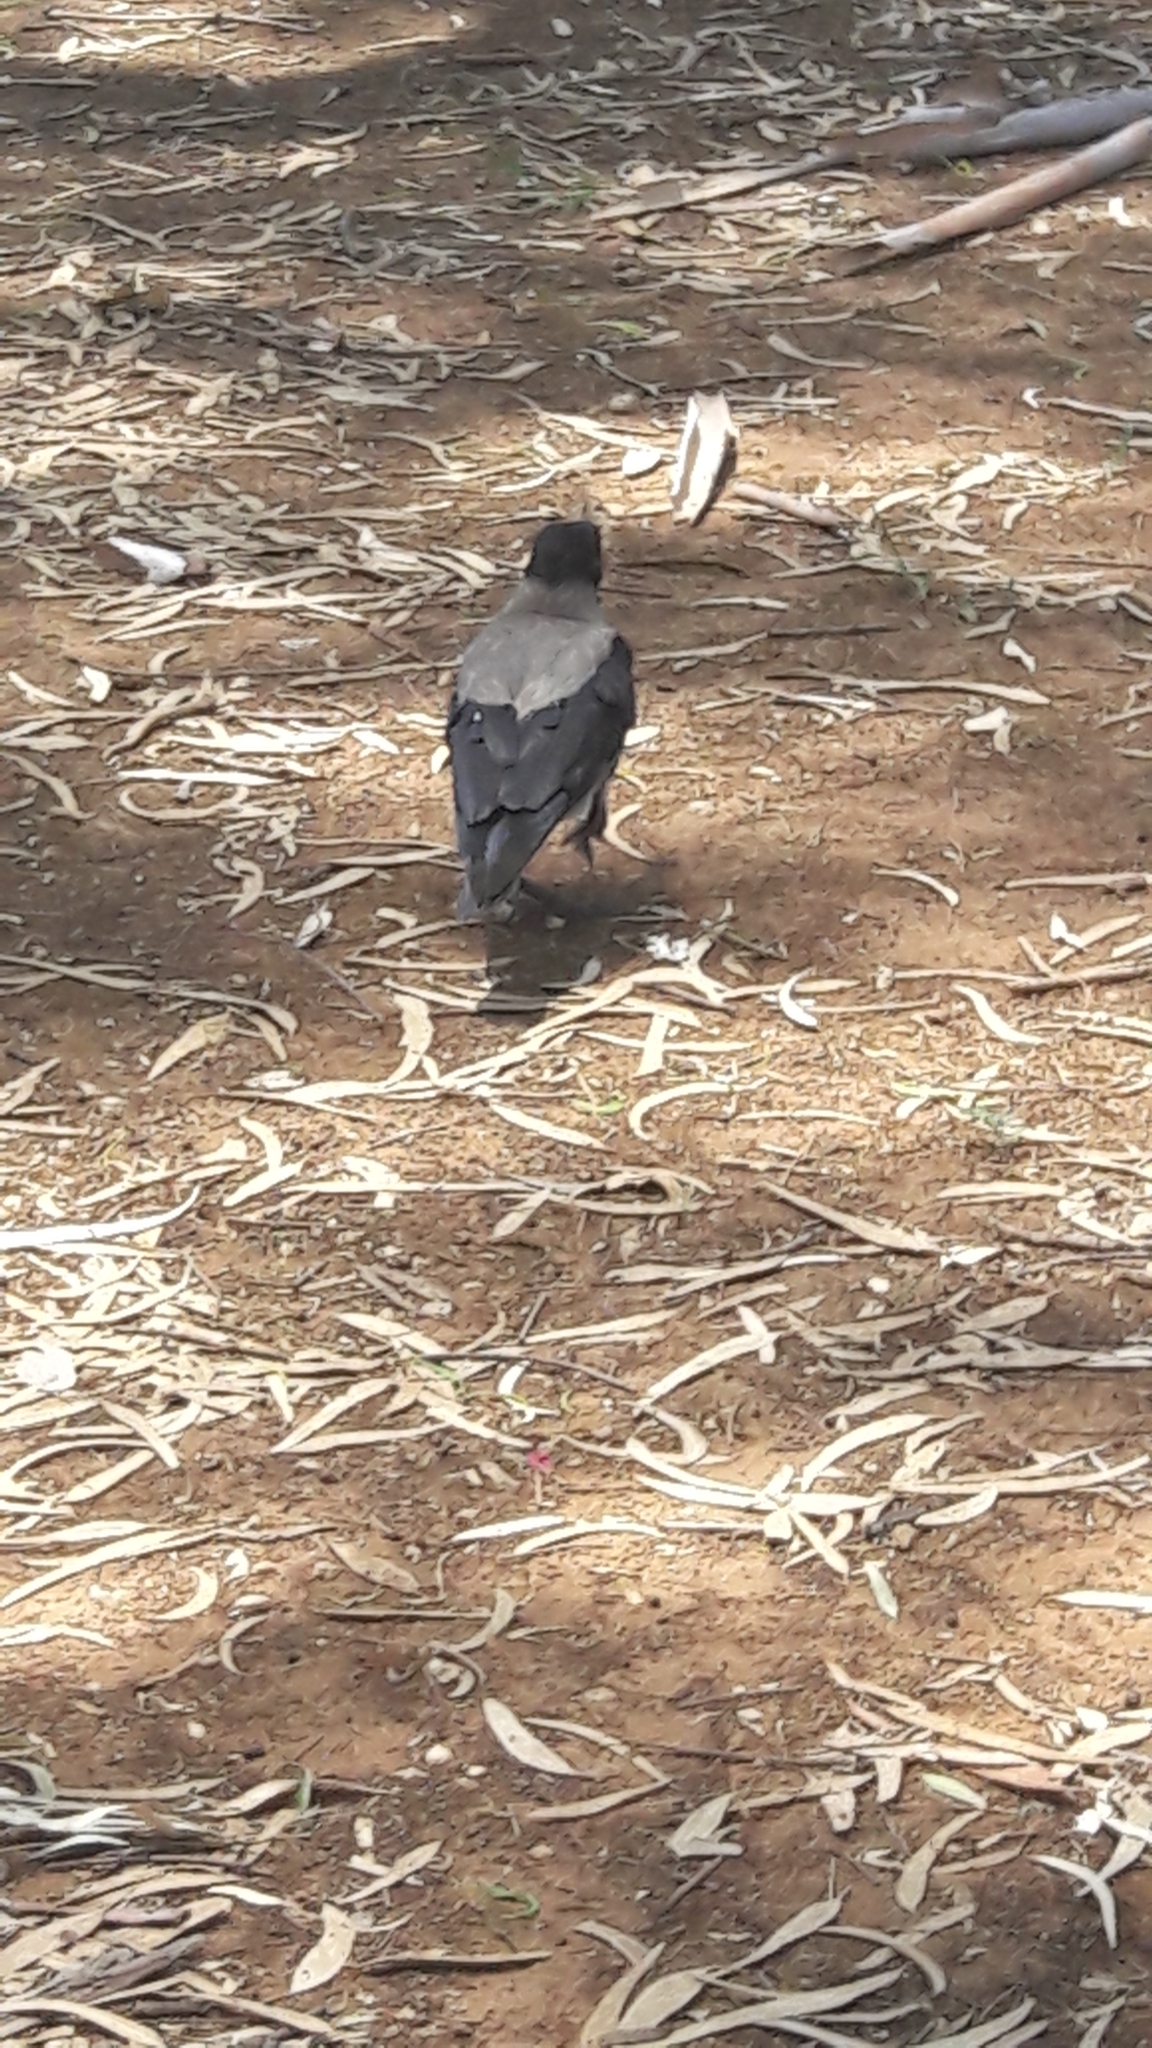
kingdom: Animalia
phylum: Chordata
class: Aves
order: Passeriformes
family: Corvidae
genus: Corvus
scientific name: Corvus cornix
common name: Hooded crow
